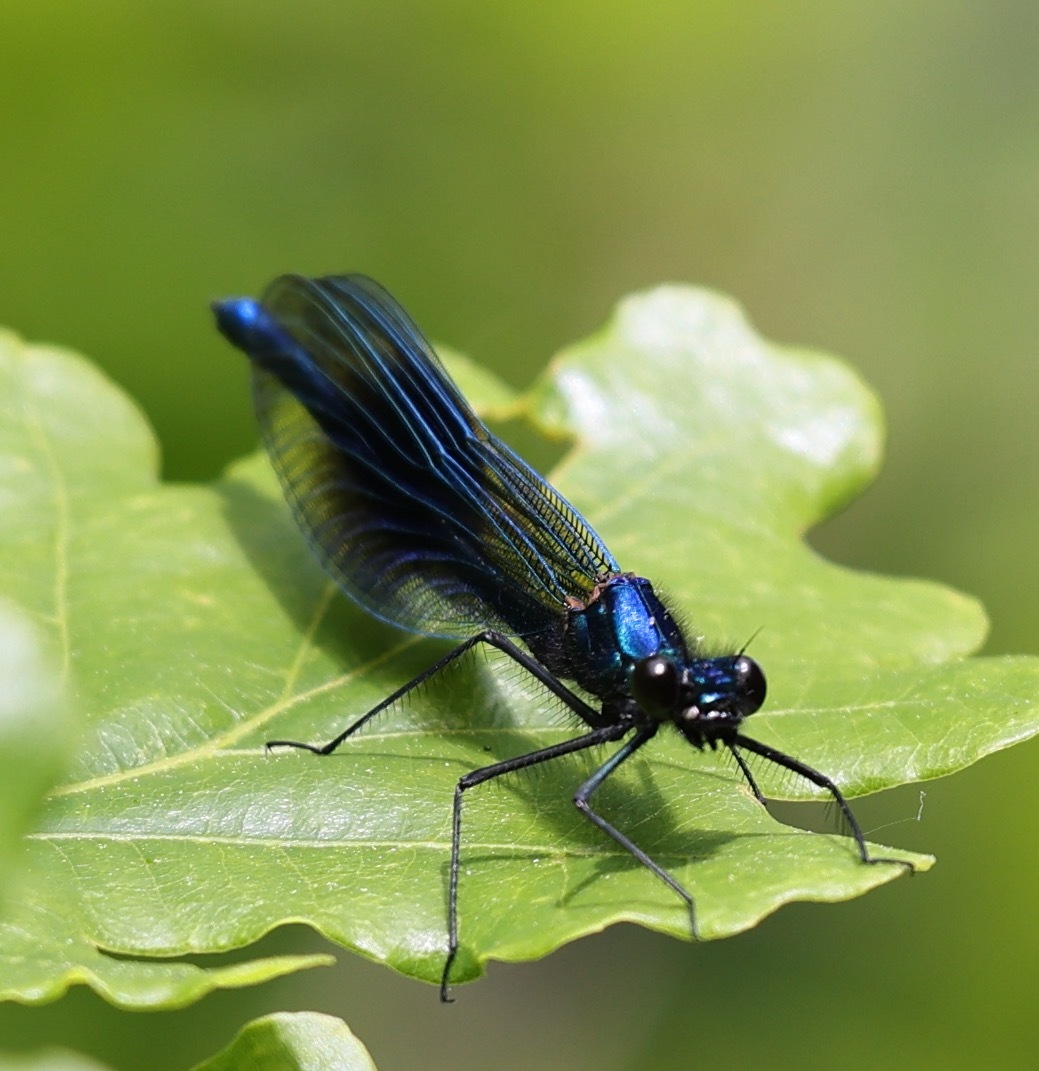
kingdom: Animalia
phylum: Arthropoda
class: Insecta
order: Odonata
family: Calopterygidae
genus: Calopteryx
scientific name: Calopteryx splendens
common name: Banded demoiselle
